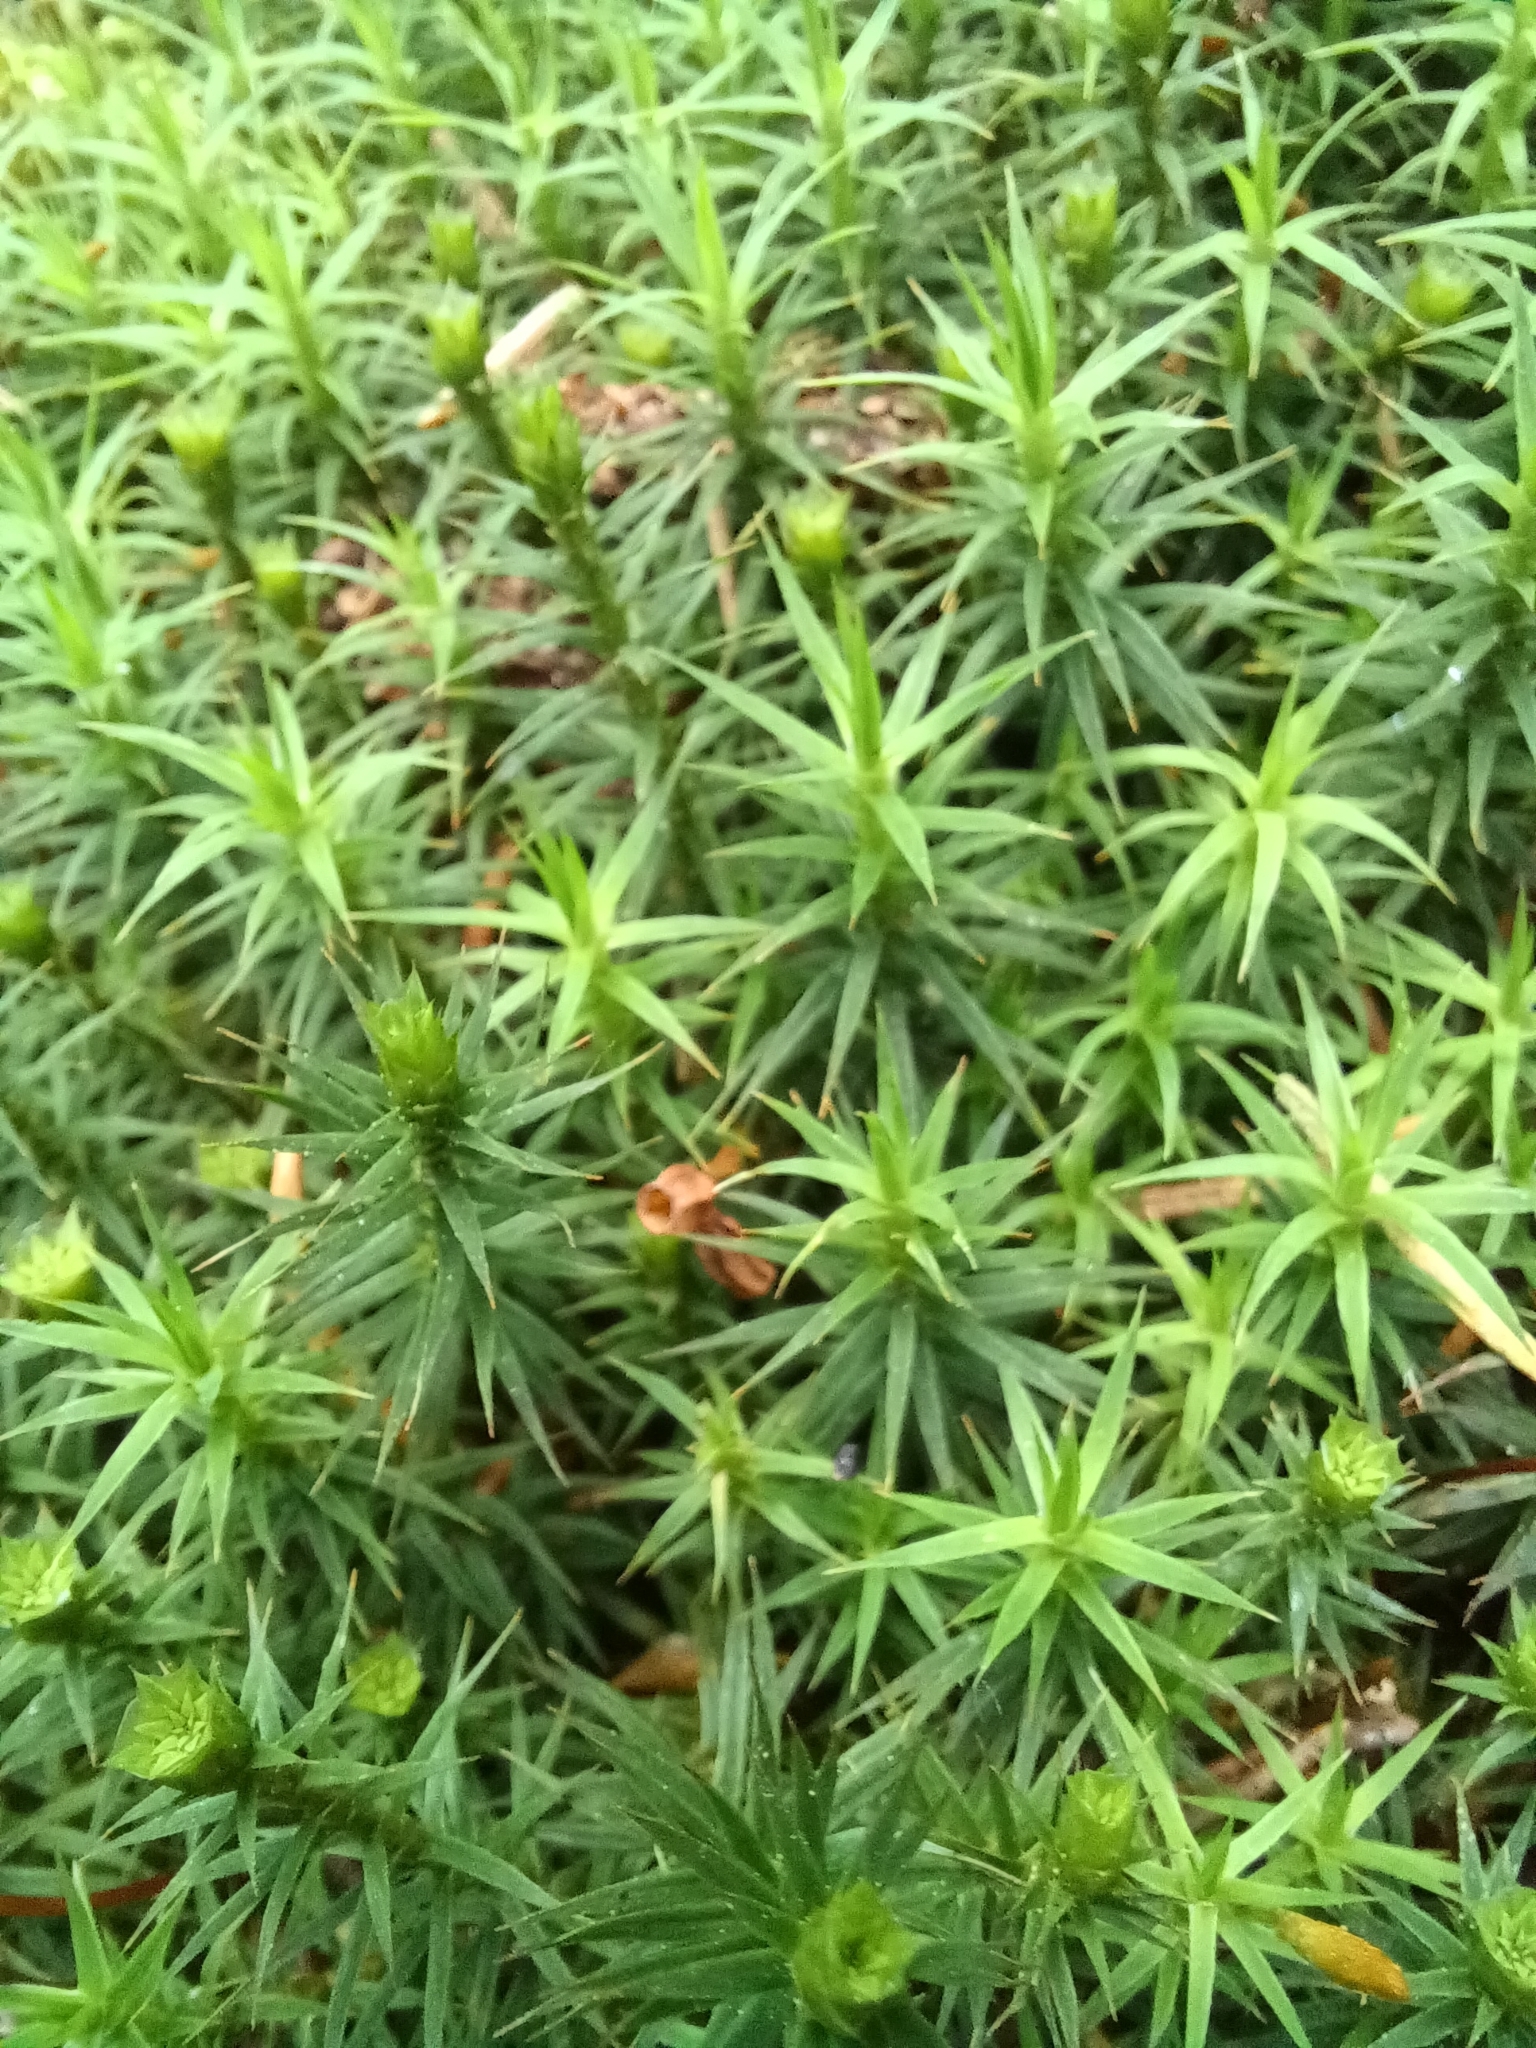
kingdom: Plantae
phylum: Bryophyta
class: Polytrichopsida
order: Polytrichales
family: Polytrichaceae
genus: Polytrichum
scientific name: Polytrichum formosum
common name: Bank haircap moss
